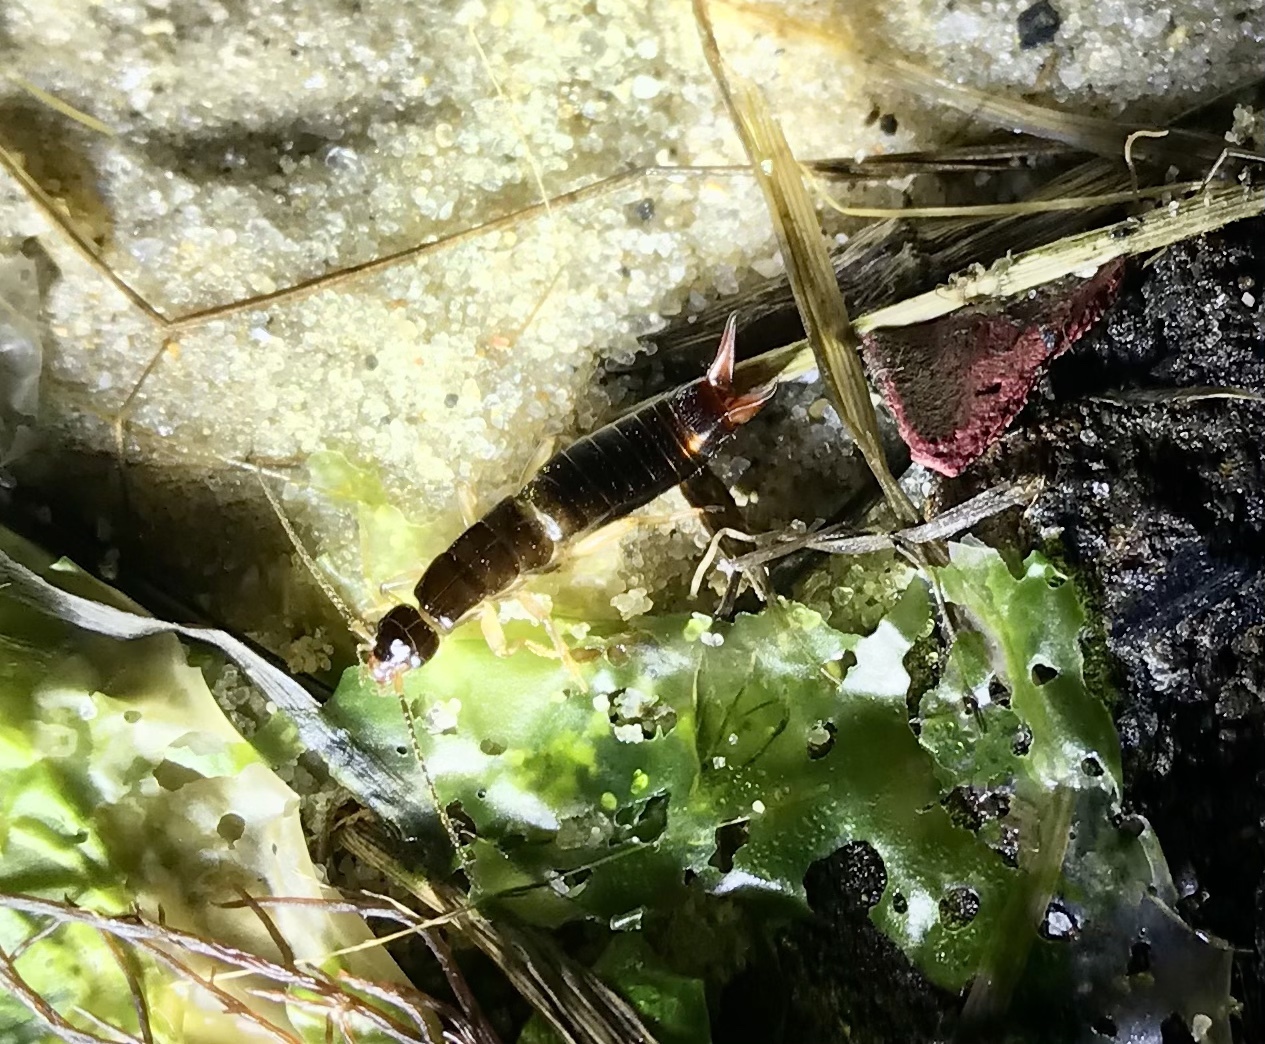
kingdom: Animalia
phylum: Arthropoda
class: Insecta
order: Dermaptera
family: Anisolabididae
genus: Anisolabis
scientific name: Anisolabis maritima
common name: Maritime earwig
